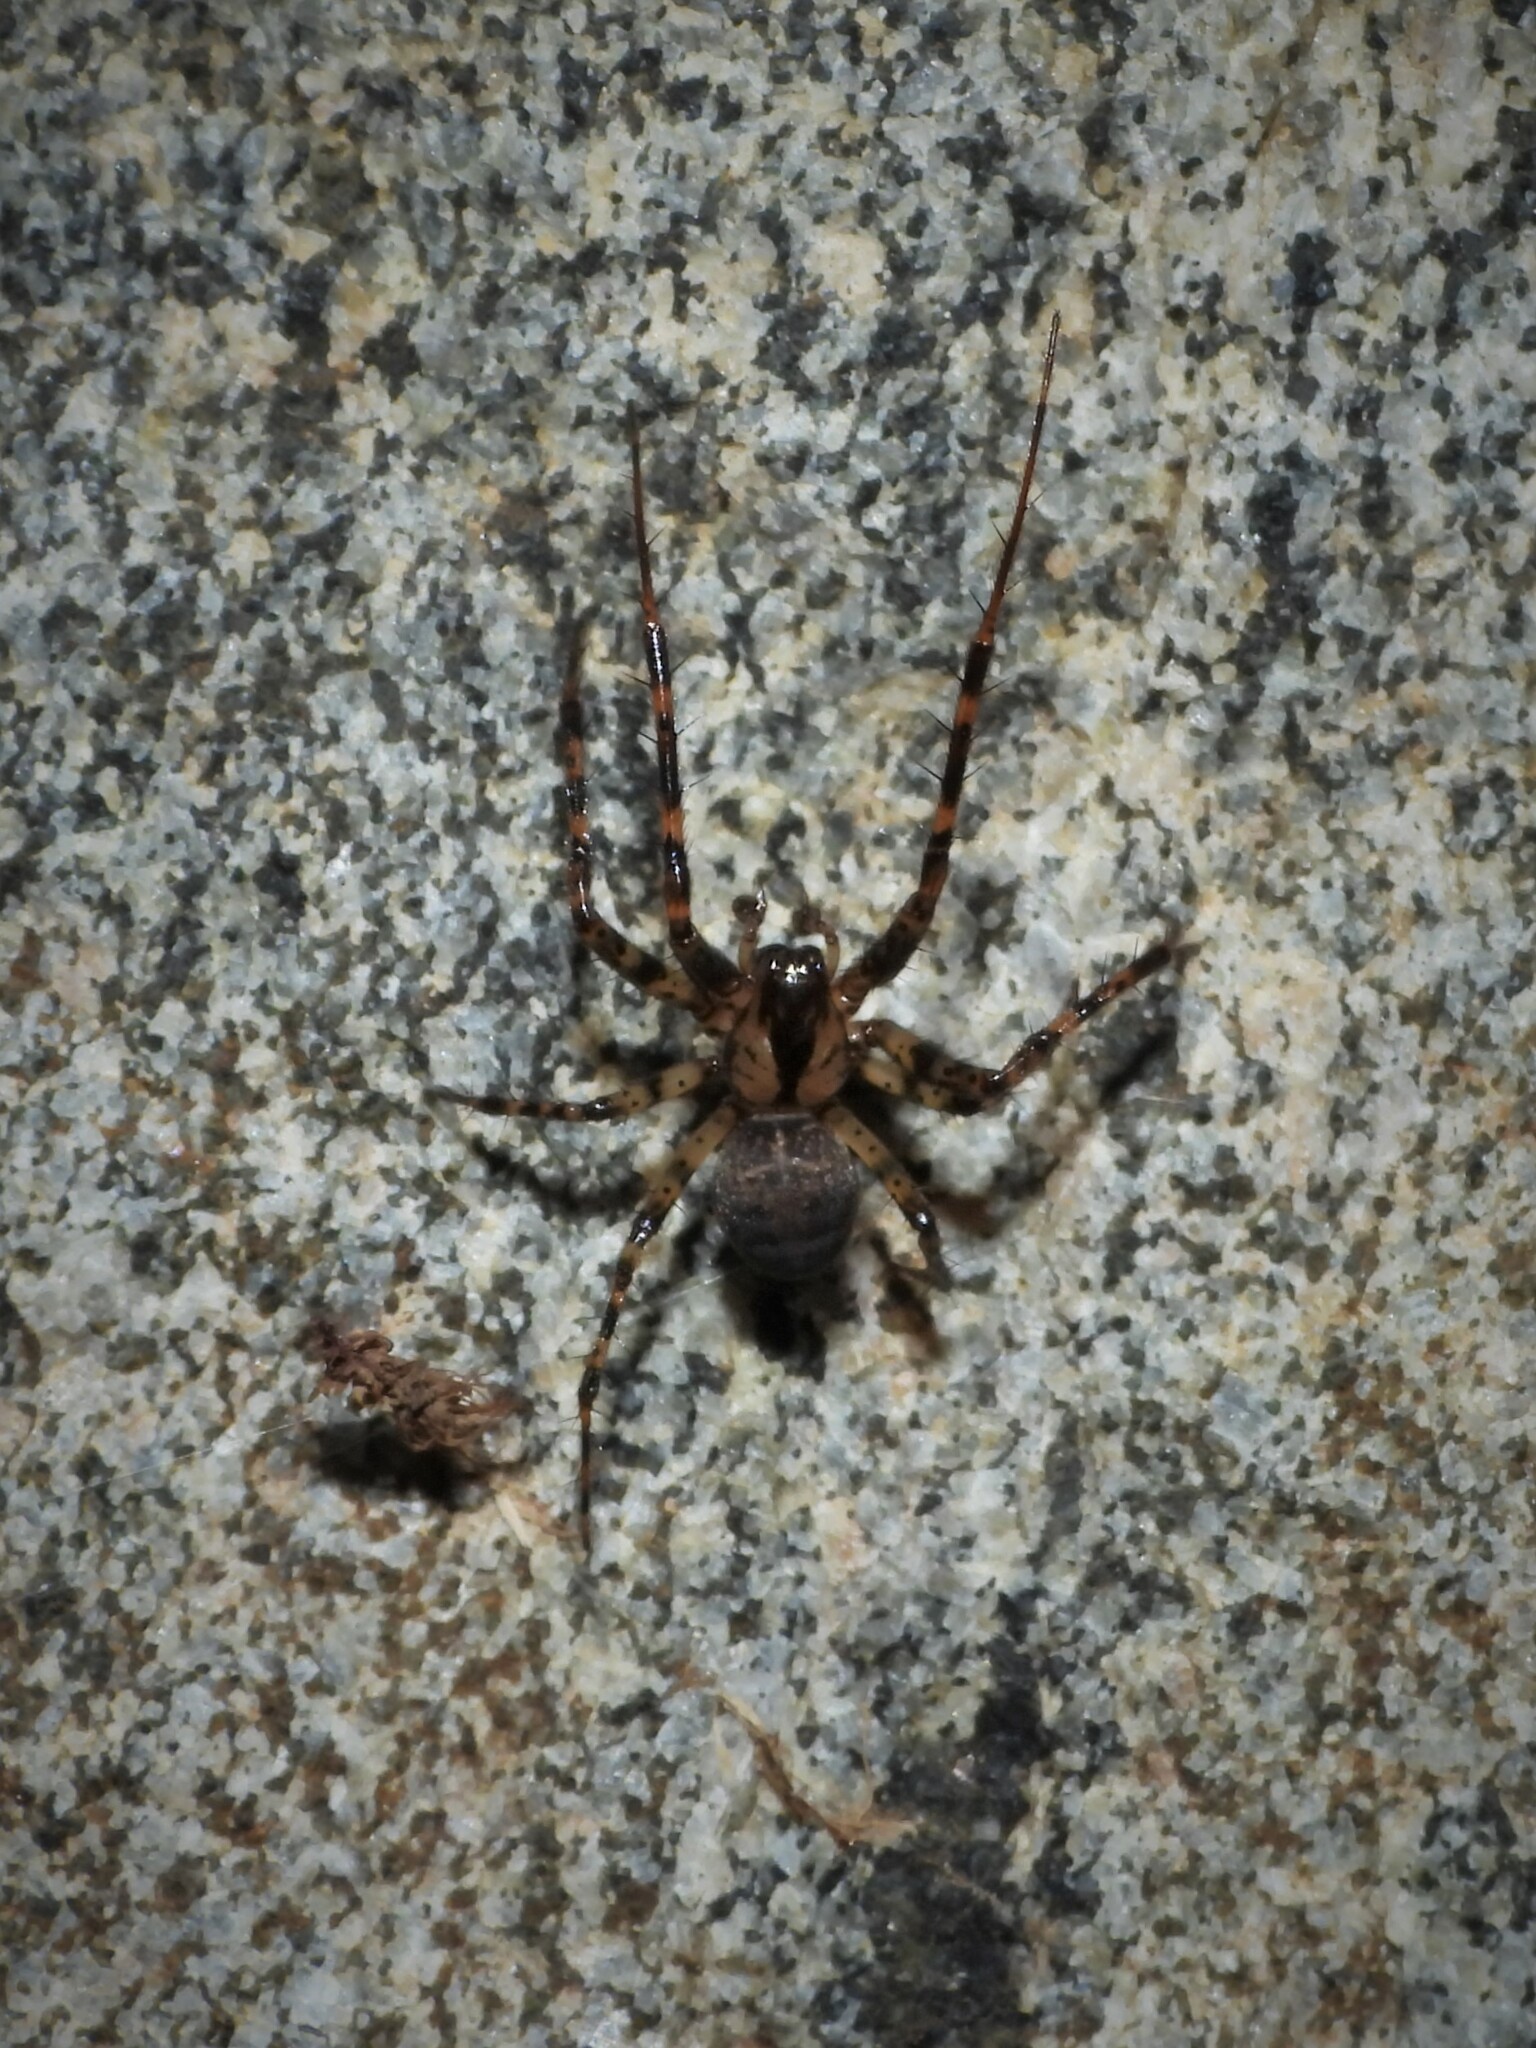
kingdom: Animalia
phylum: Arthropoda
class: Arachnida
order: Araneae
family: Tetragnathidae
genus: Metellina
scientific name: Metellina merianae
